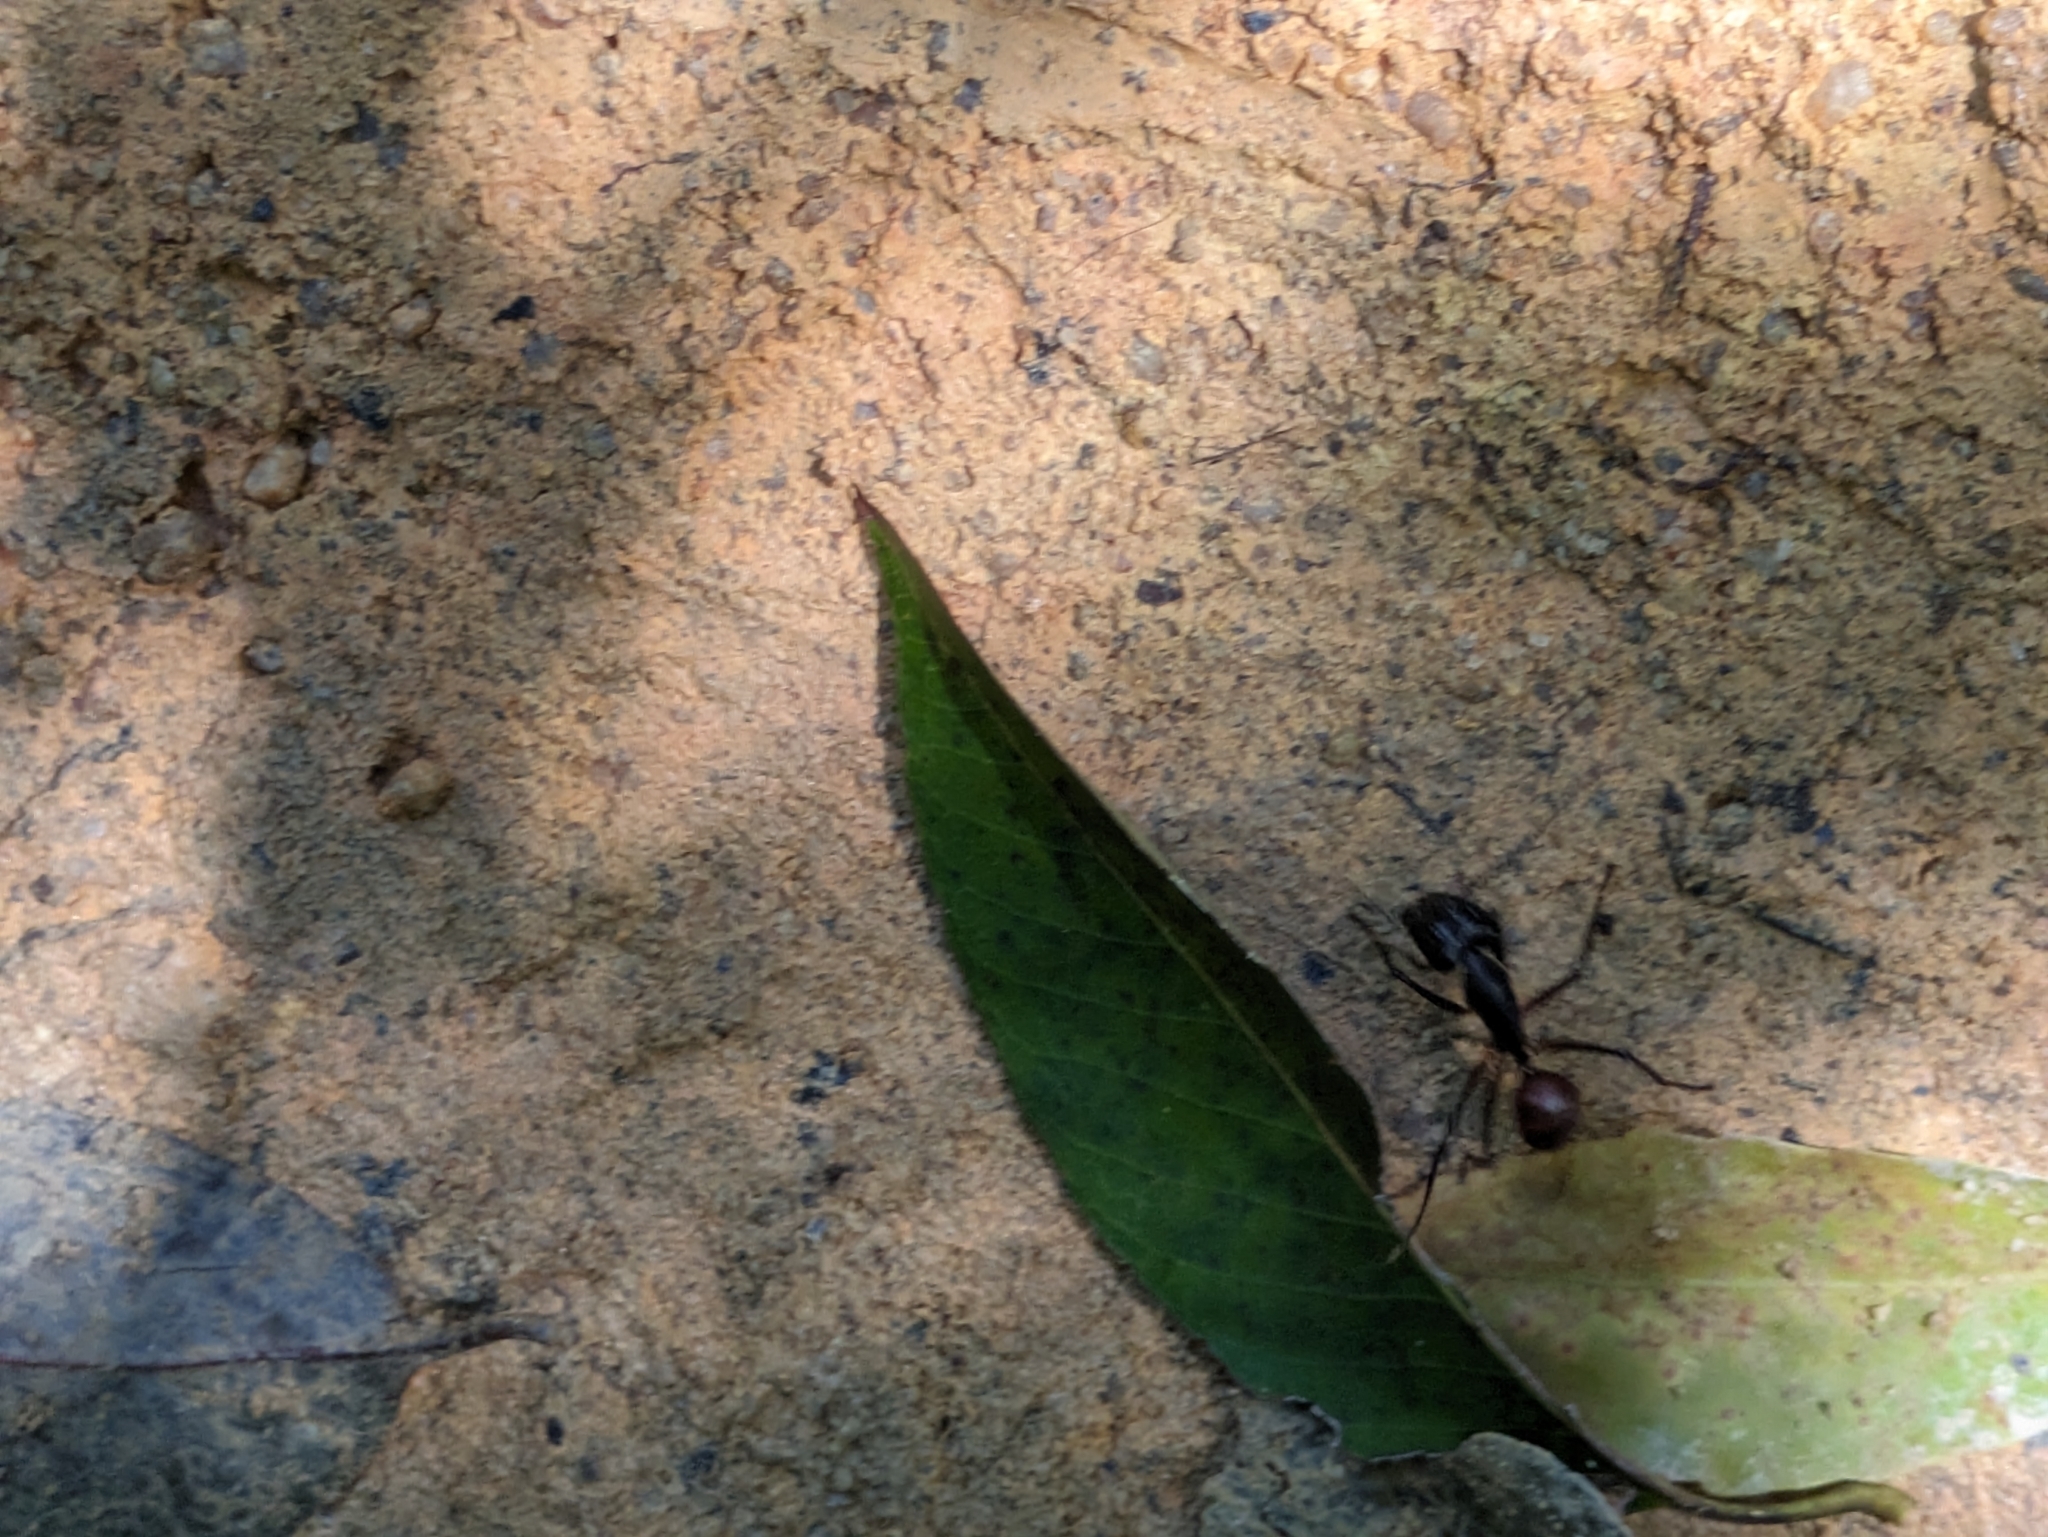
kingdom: Animalia
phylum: Arthropoda
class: Insecta
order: Hymenoptera
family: Formicidae
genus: Dinomyrmex
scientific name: Dinomyrmex
